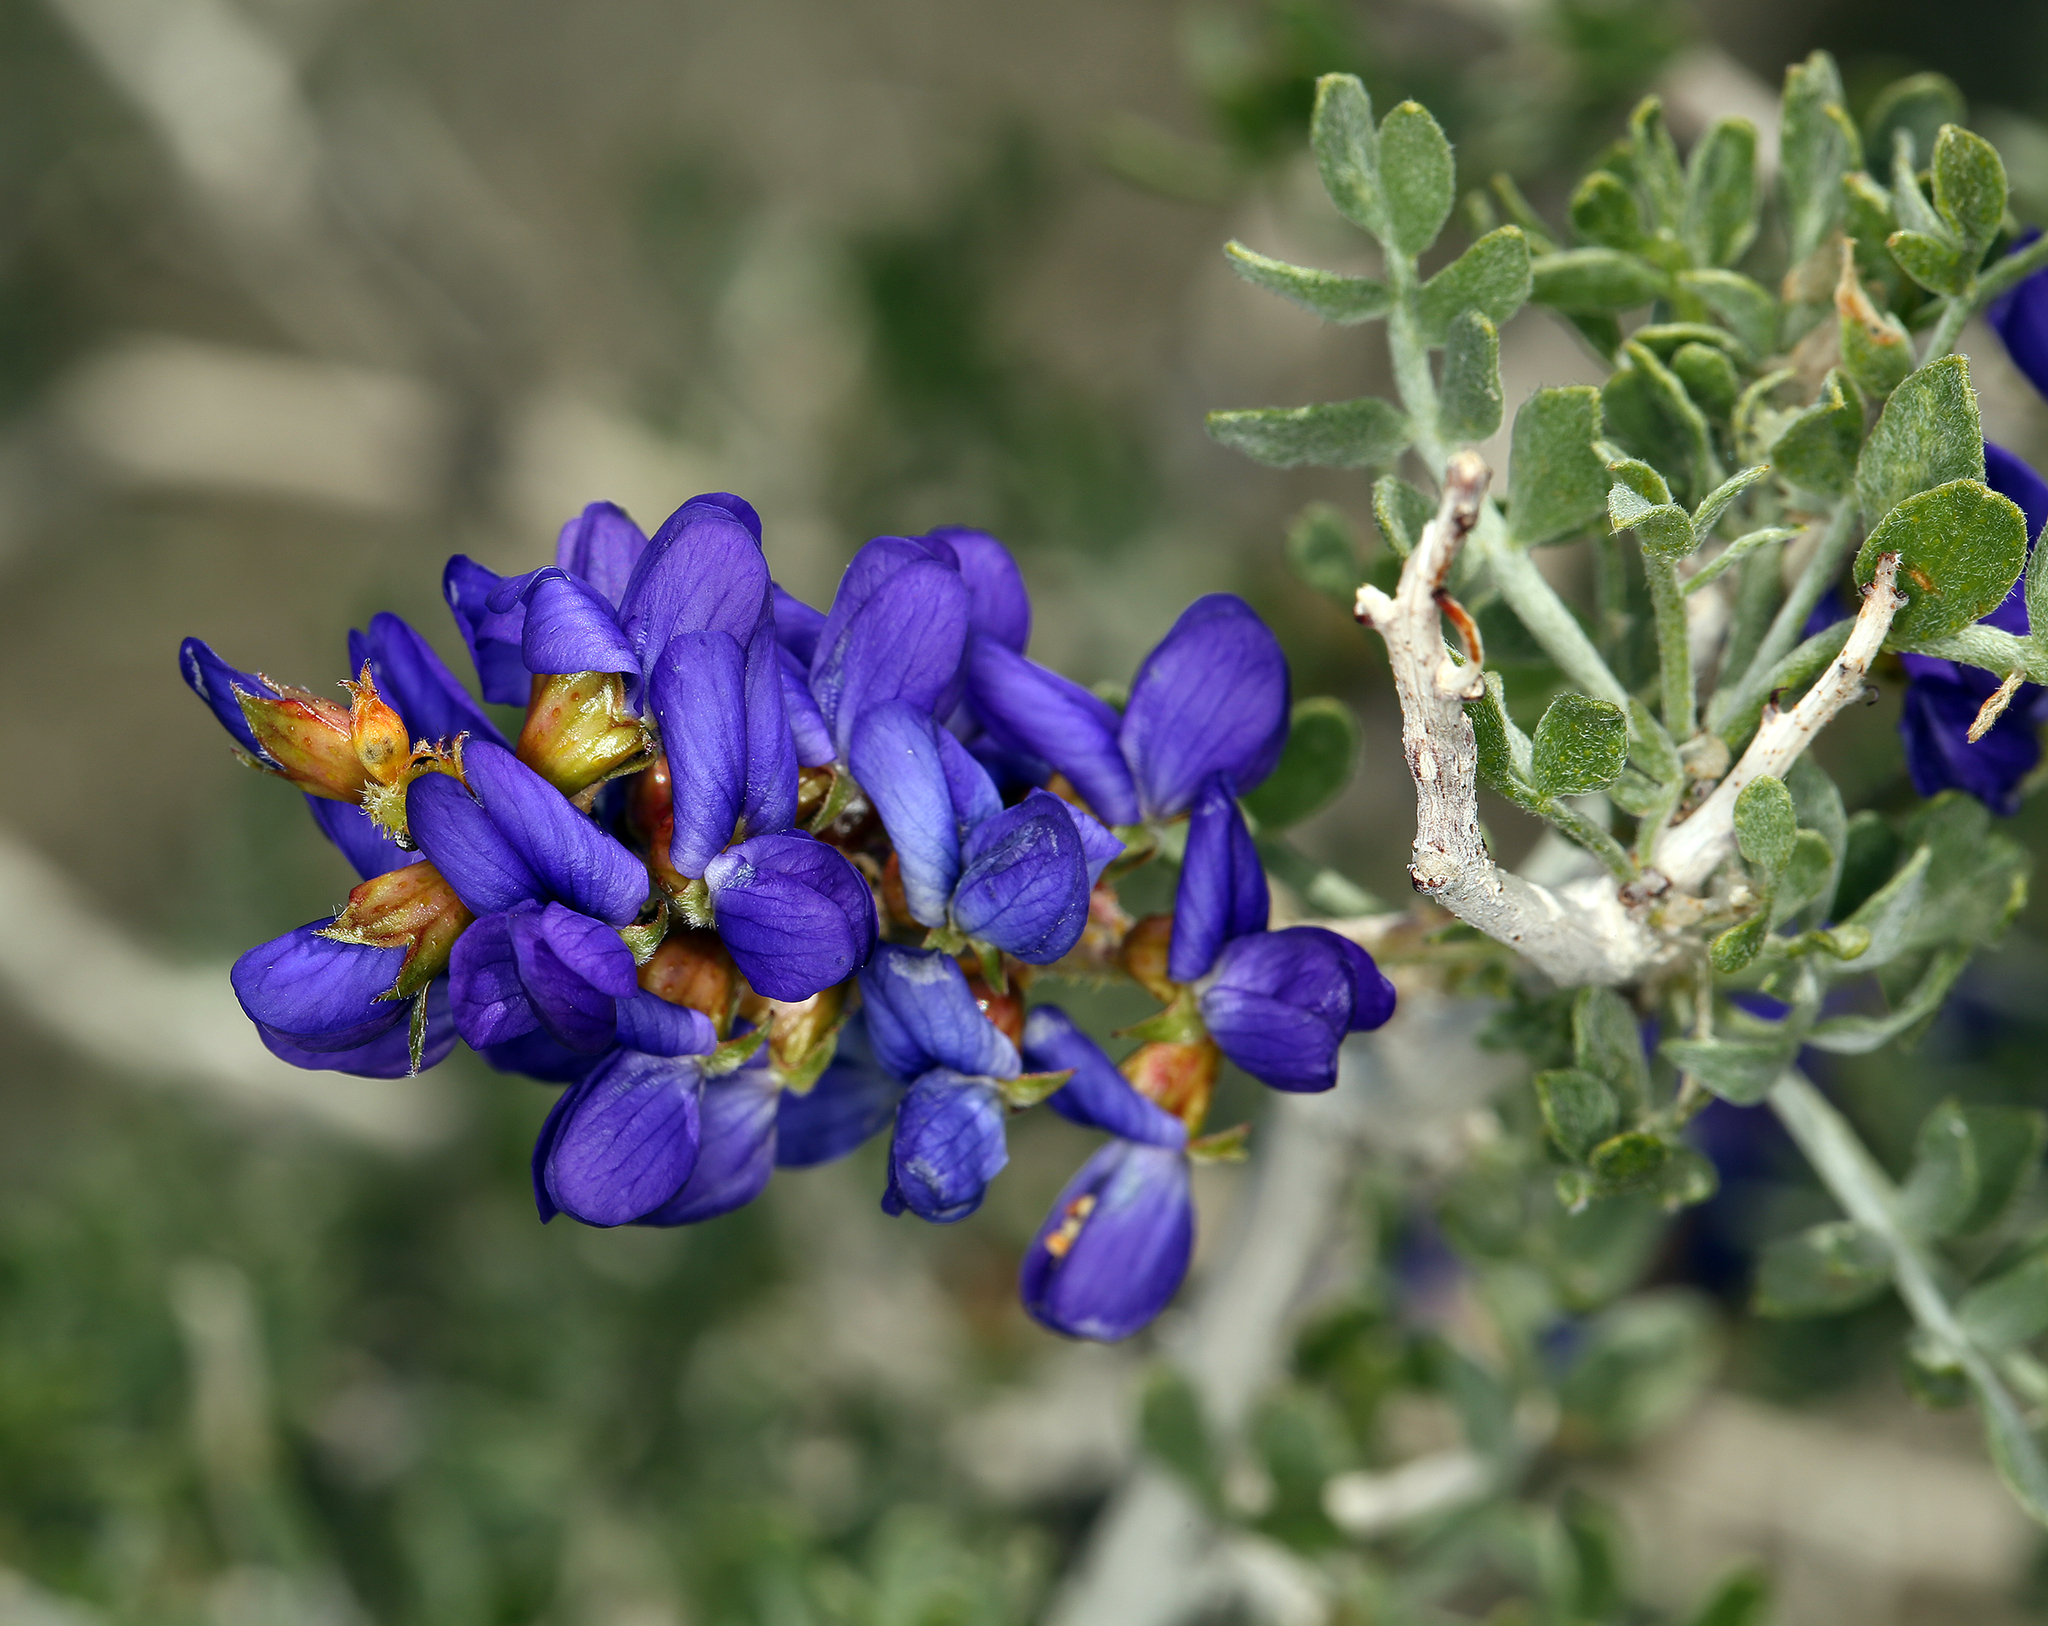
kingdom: Plantae
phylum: Tracheophyta
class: Magnoliopsida
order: Fabales
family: Fabaceae
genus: Psorothamnus
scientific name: Psorothamnus arborescens
